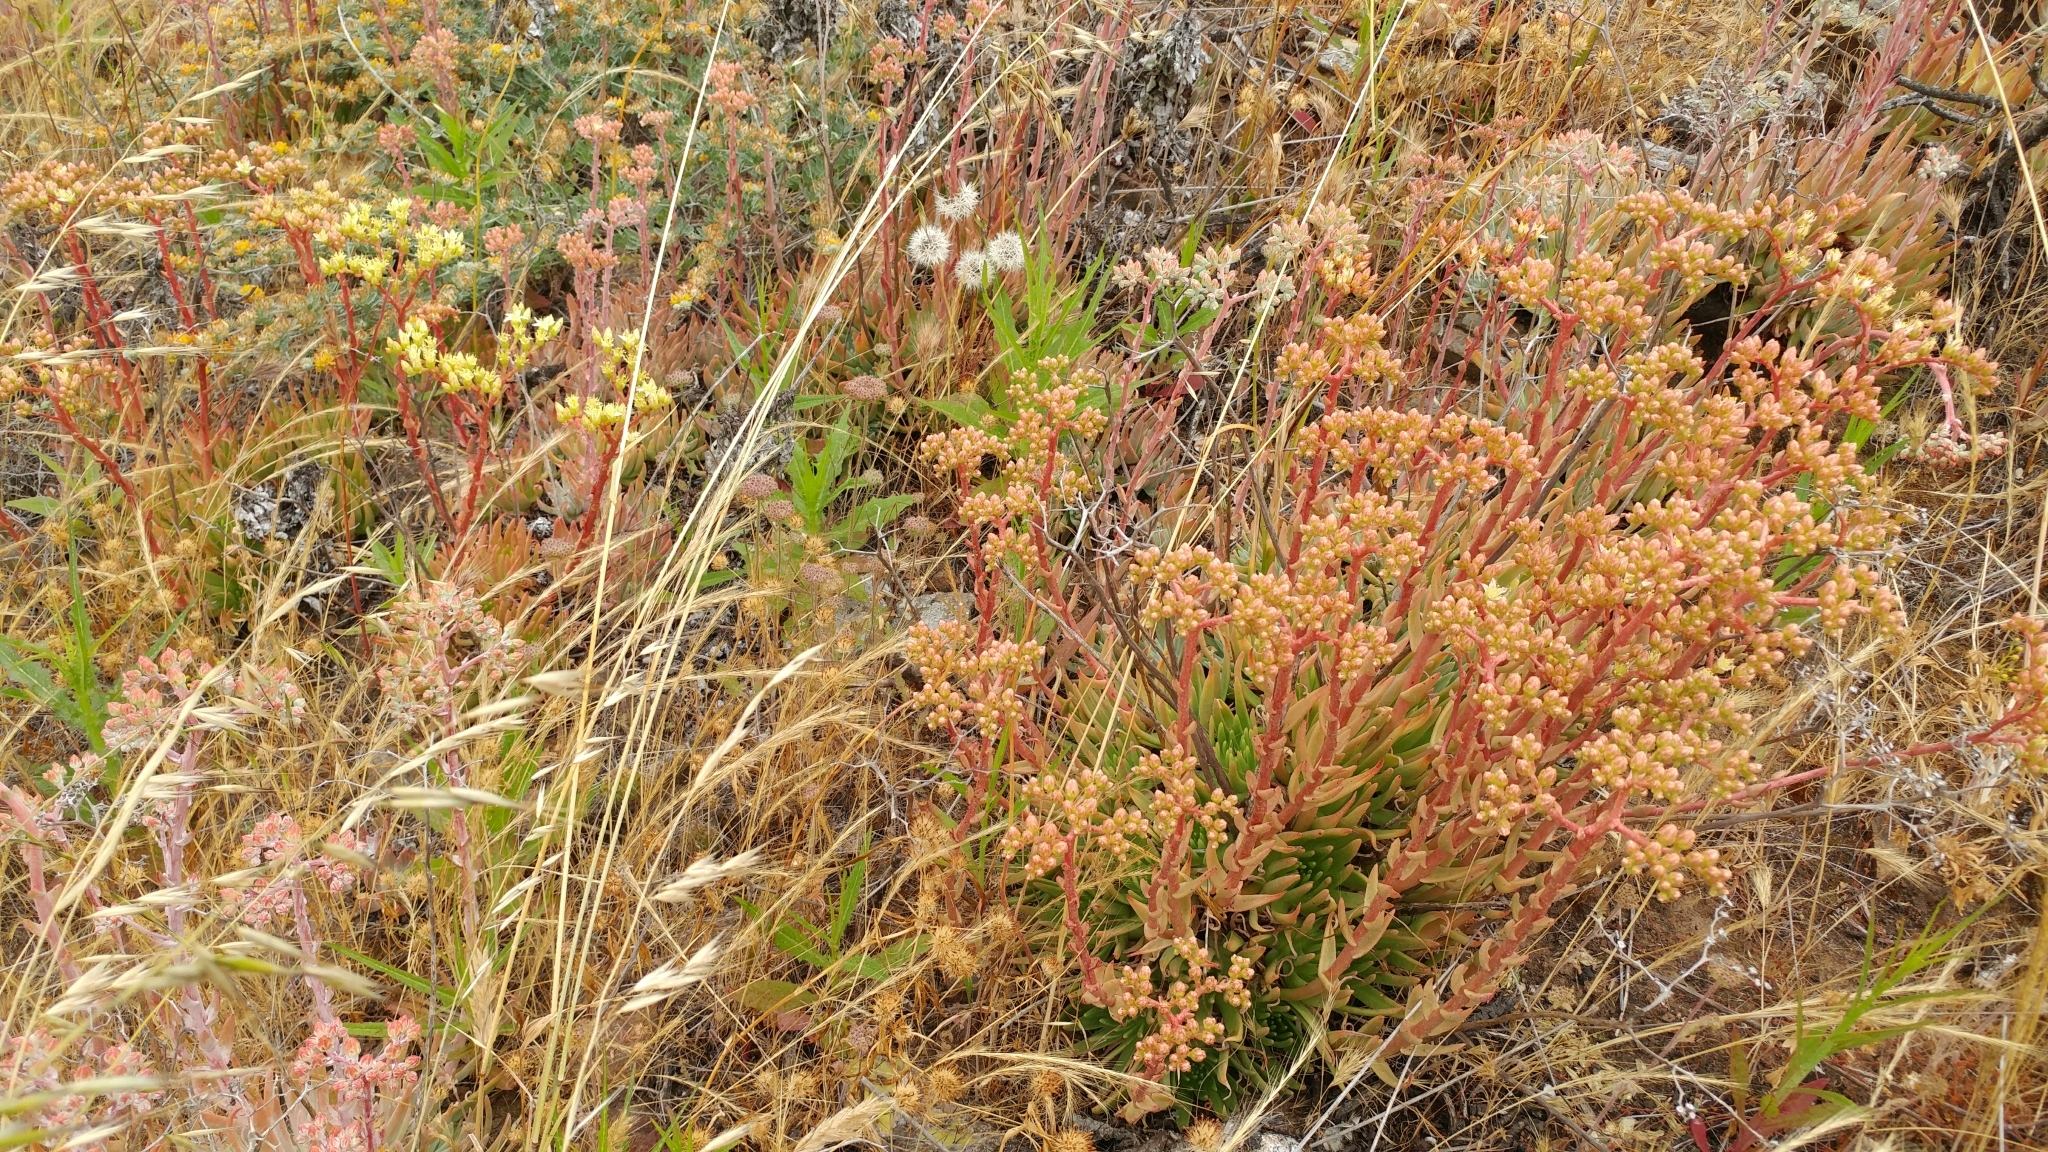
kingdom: Plantae
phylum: Tracheophyta
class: Magnoliopsida
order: Saxifragales
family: Crassulaceae
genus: Dudleya
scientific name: Dudleya virens
